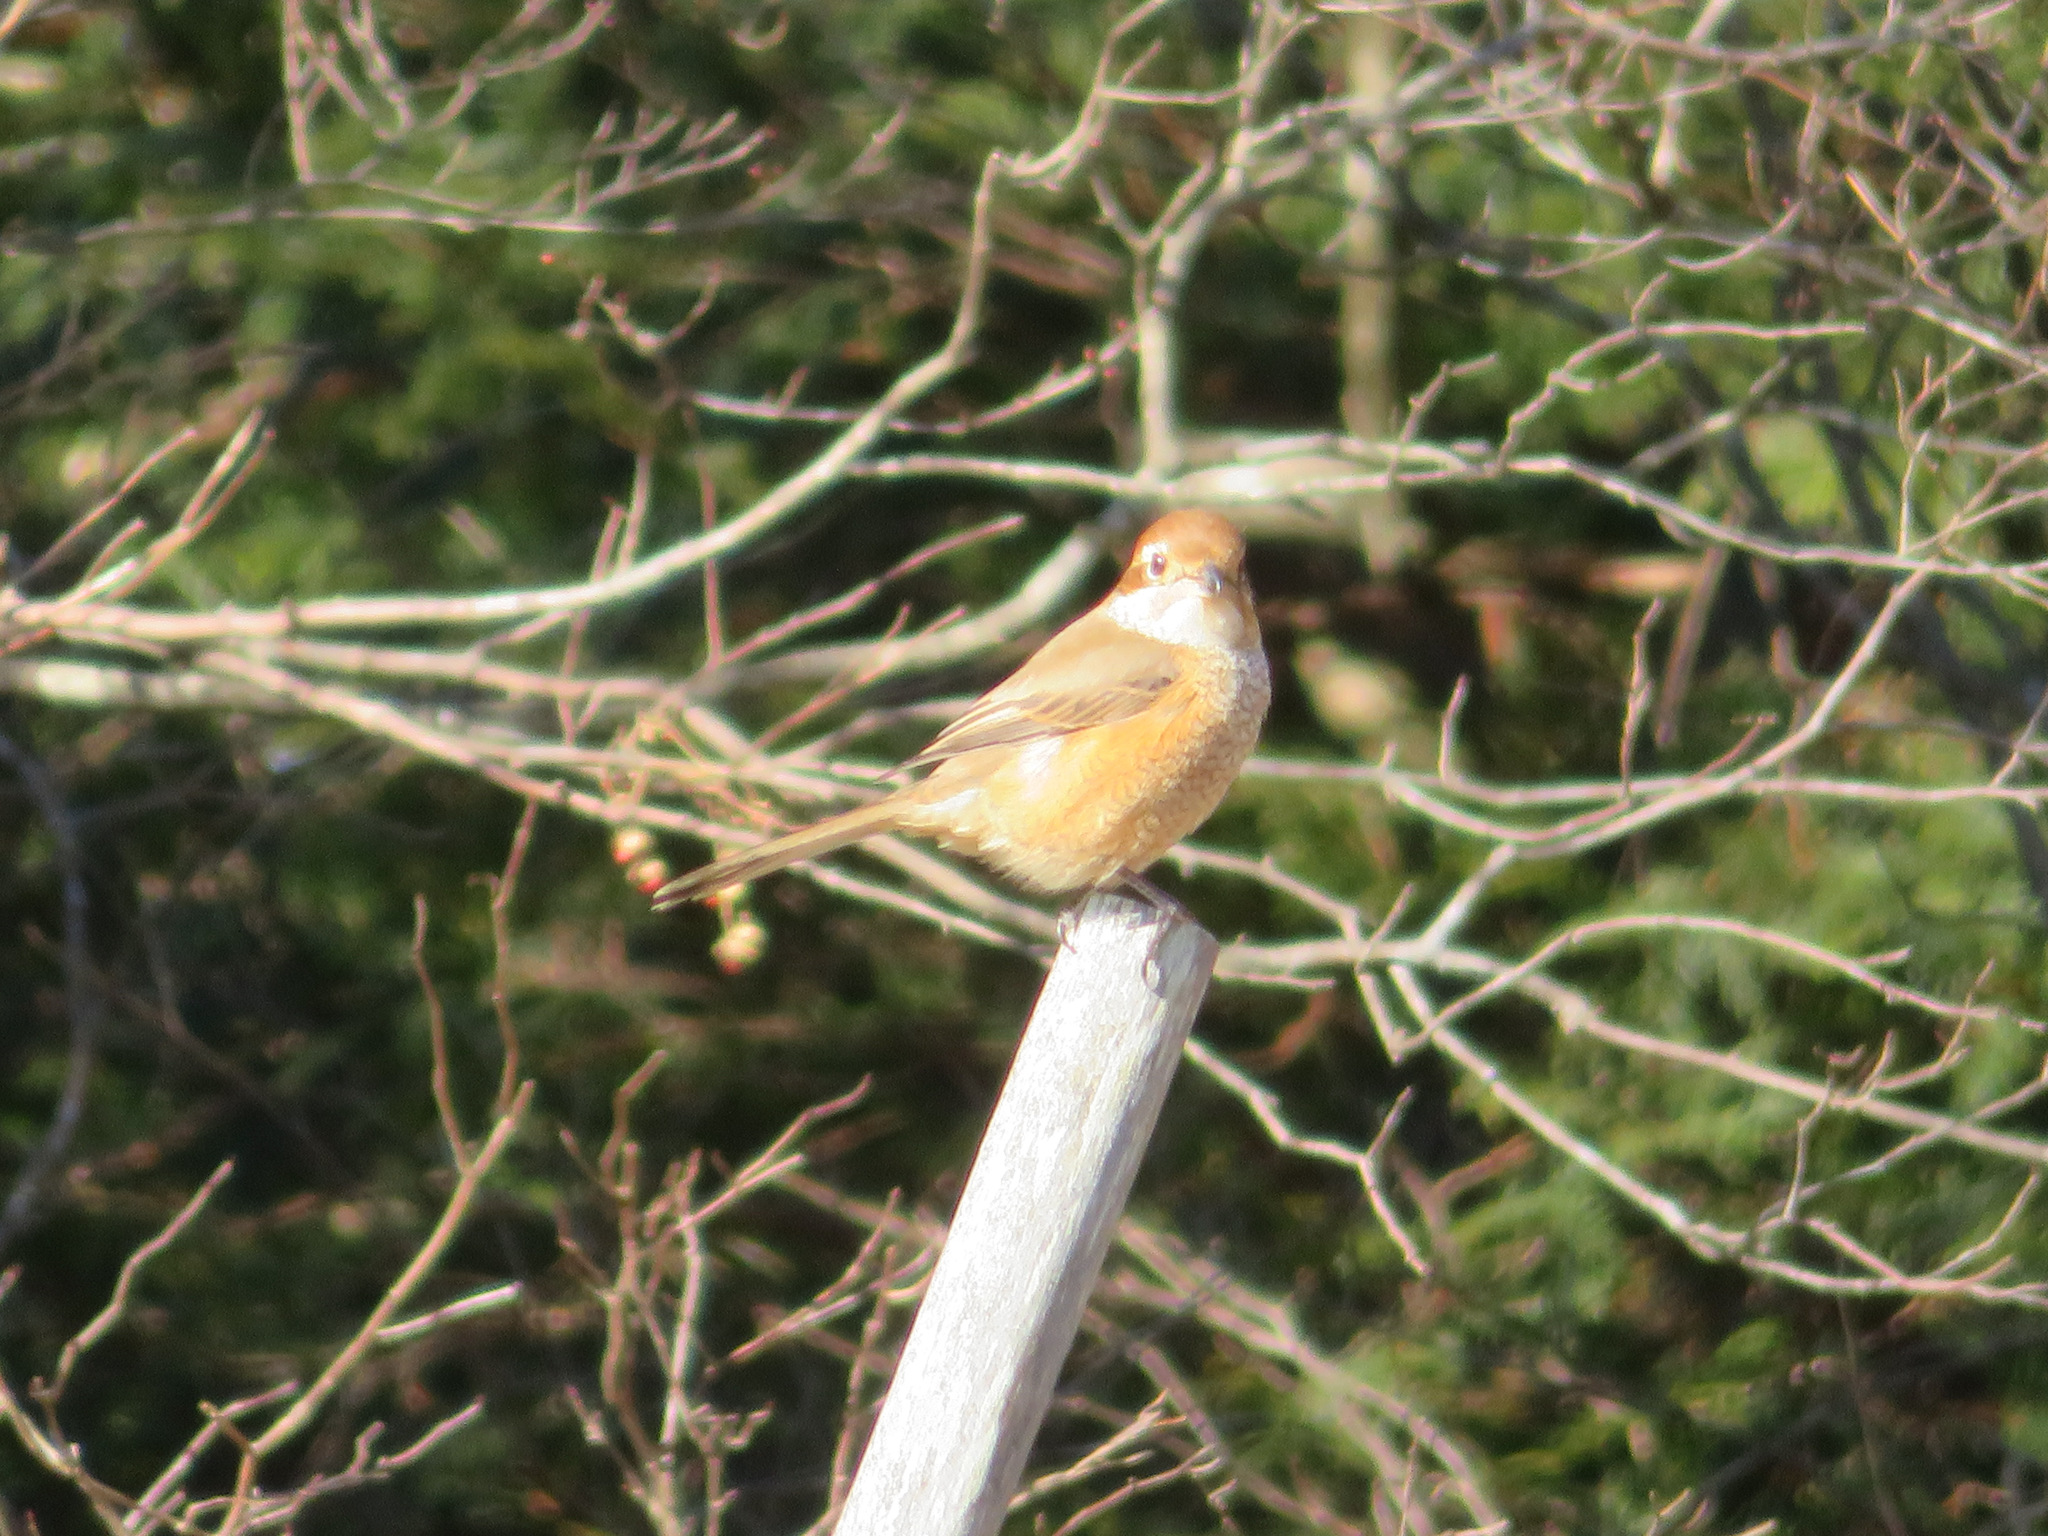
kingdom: Animalia
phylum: Chordata
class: Aves
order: Passeriformes
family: Laniidae
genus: Lanius
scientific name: Lanius bucephalus
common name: Bull-headed shrike
